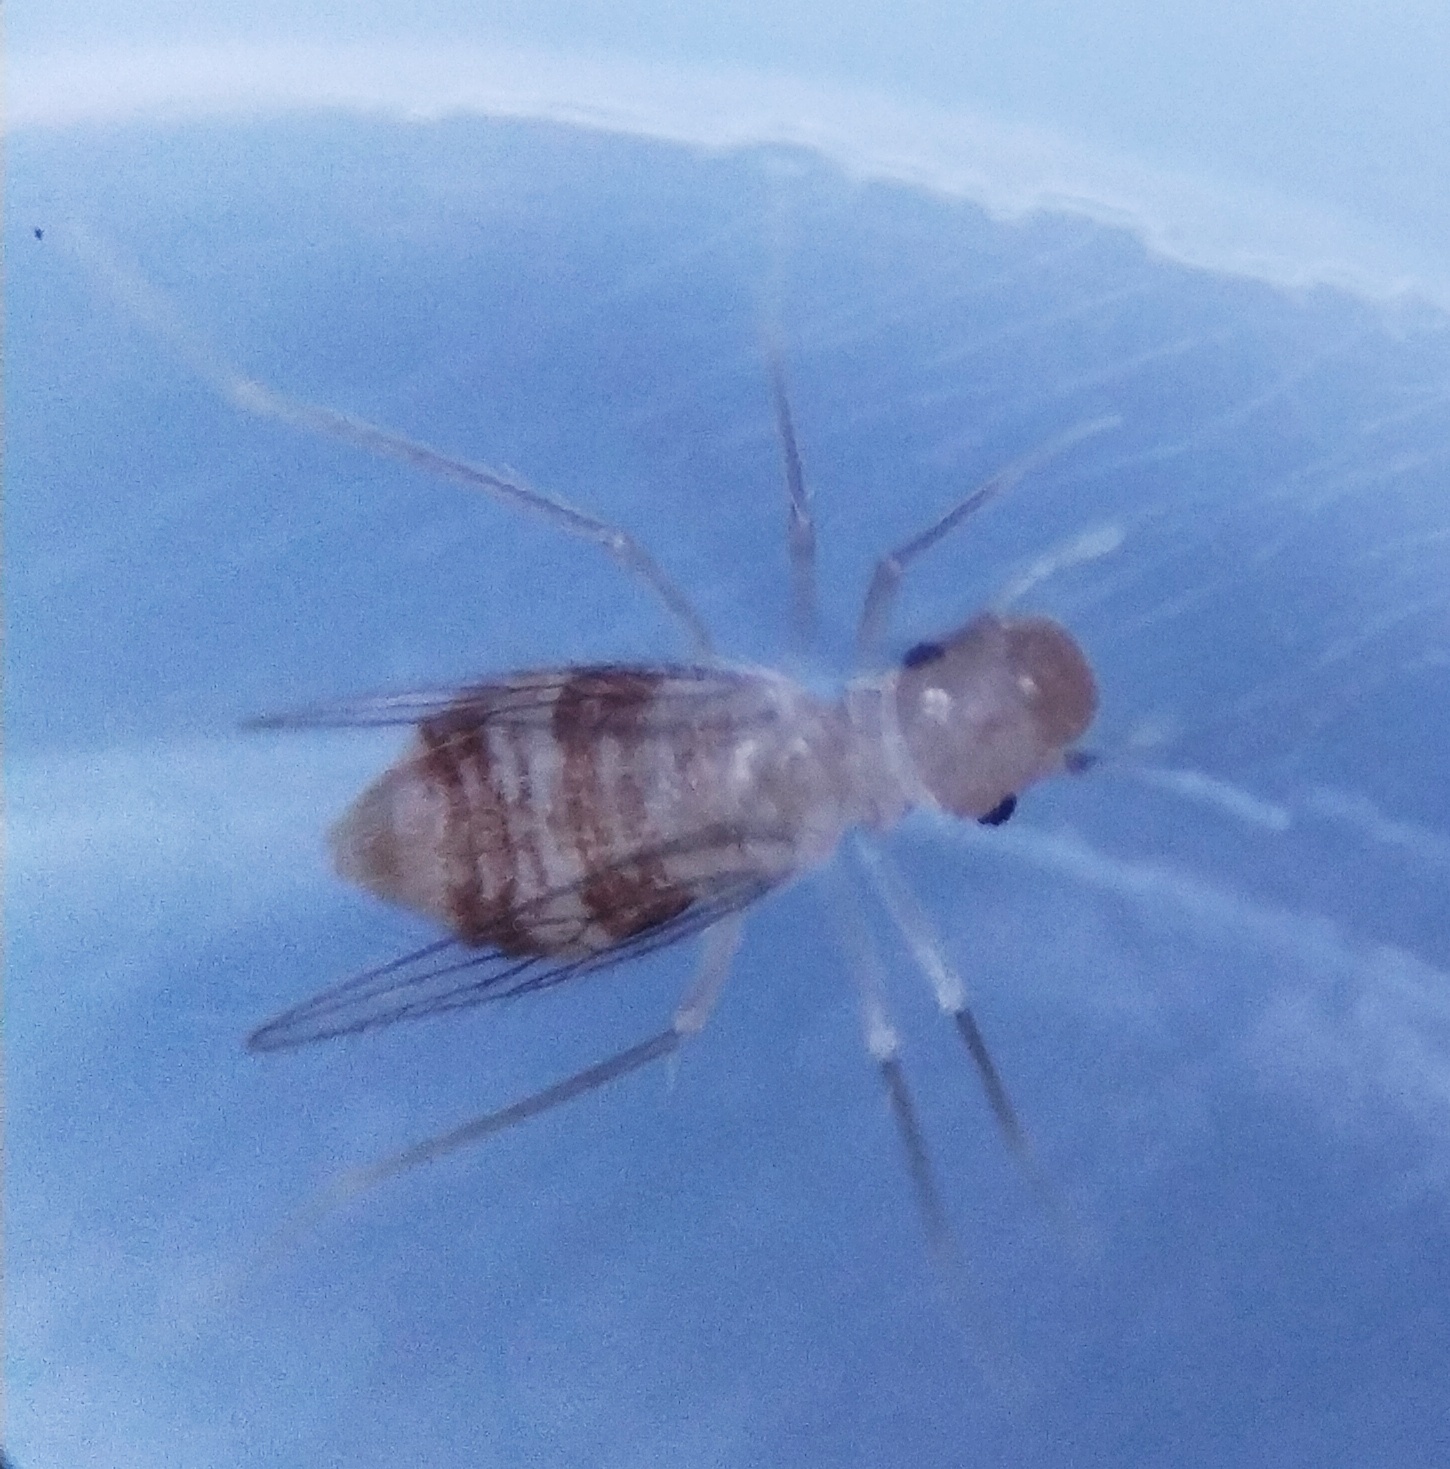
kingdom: Animalia
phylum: Arthropoda
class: Insecta
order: Psocodea
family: Psyllipsocidae
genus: Dorypteryx
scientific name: Dorypteryx domestica
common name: Cave barklouse
